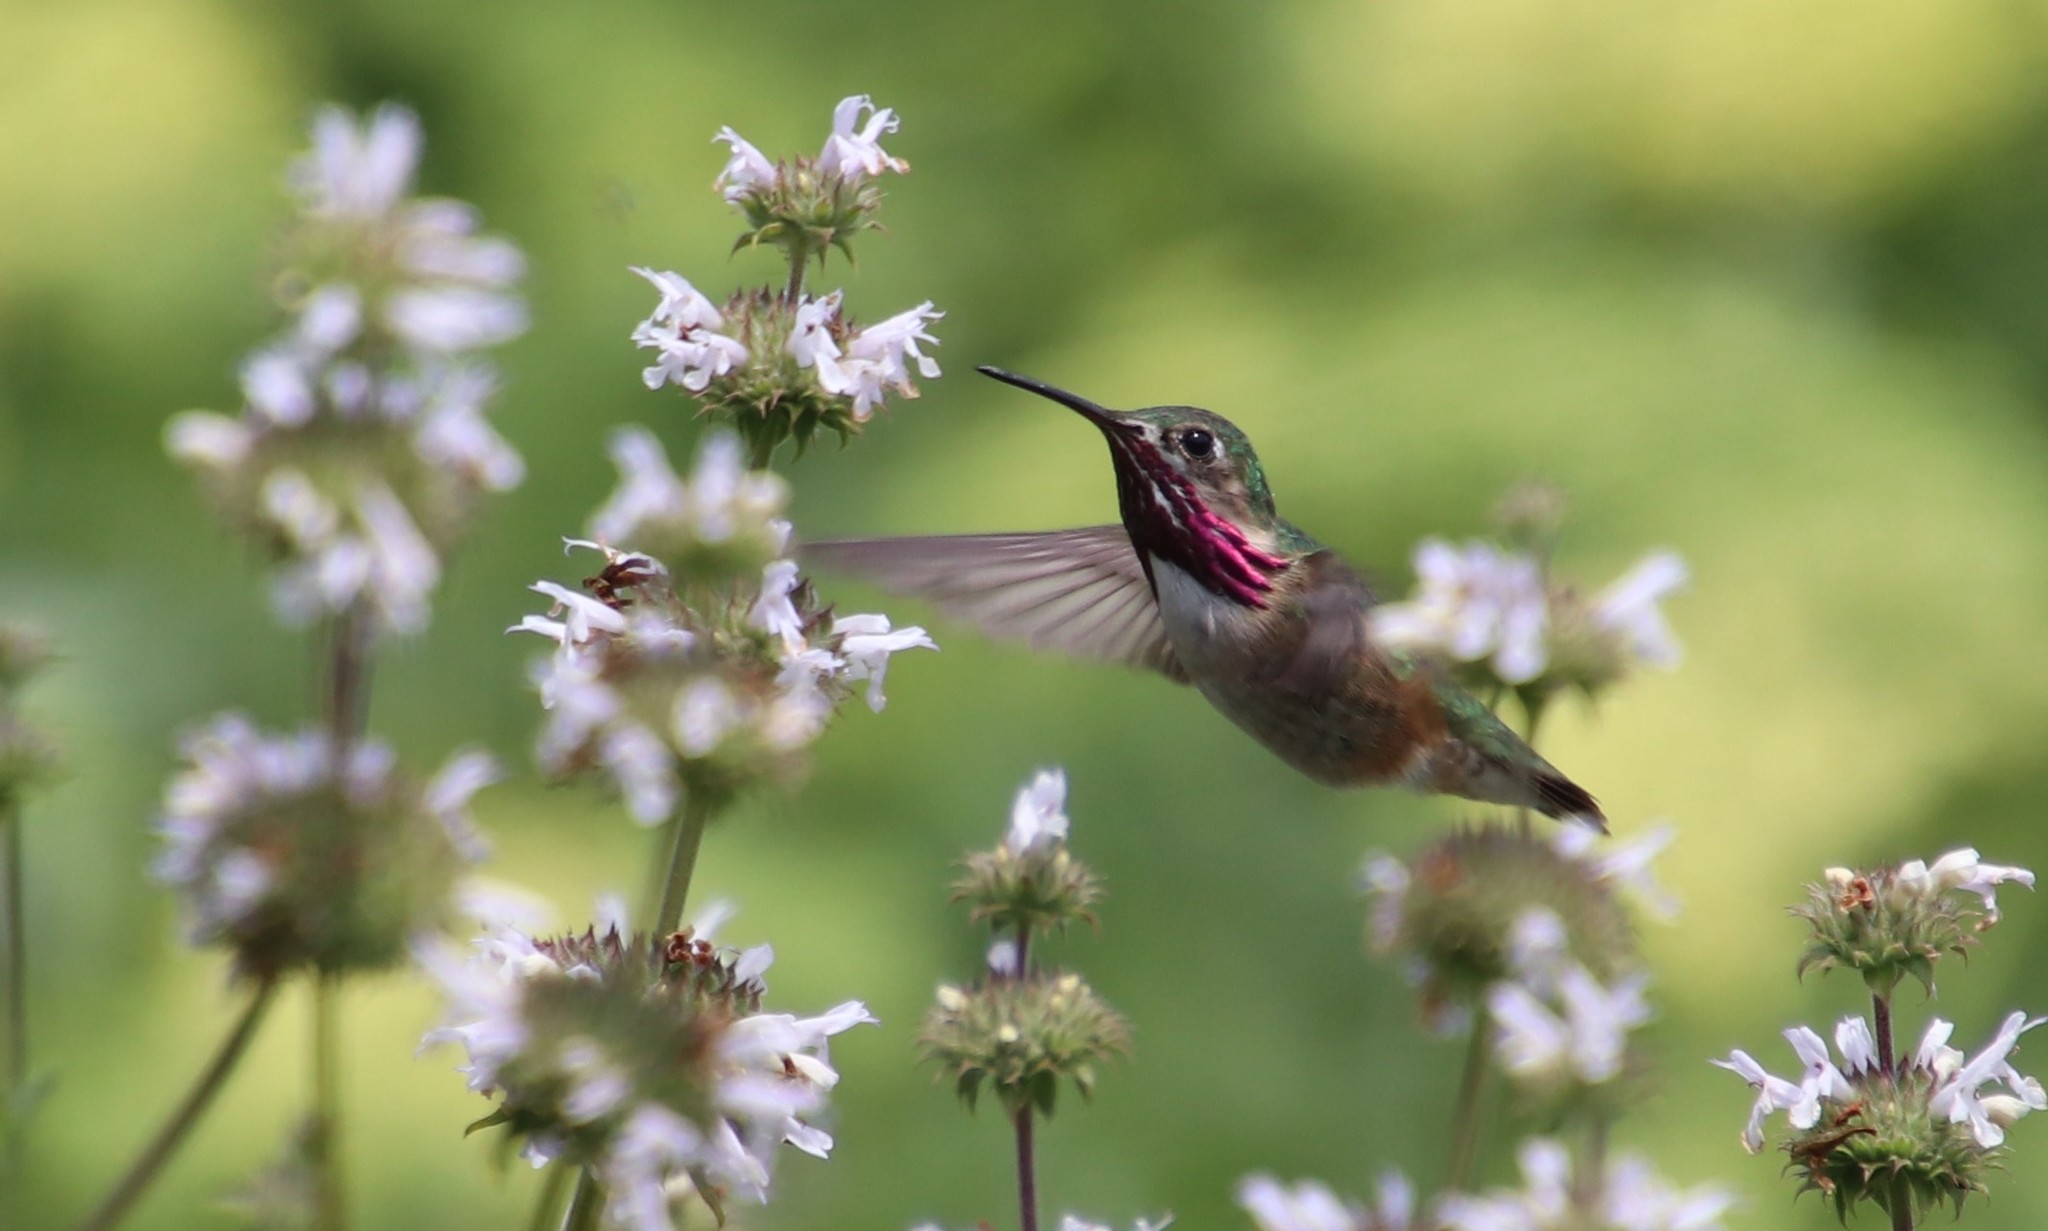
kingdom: Animalia
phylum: Chordata
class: Aves
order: Apodiformes
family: Trochilidae
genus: Selasphorus
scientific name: Selasphorus calliope
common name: Calliope hummingbird
